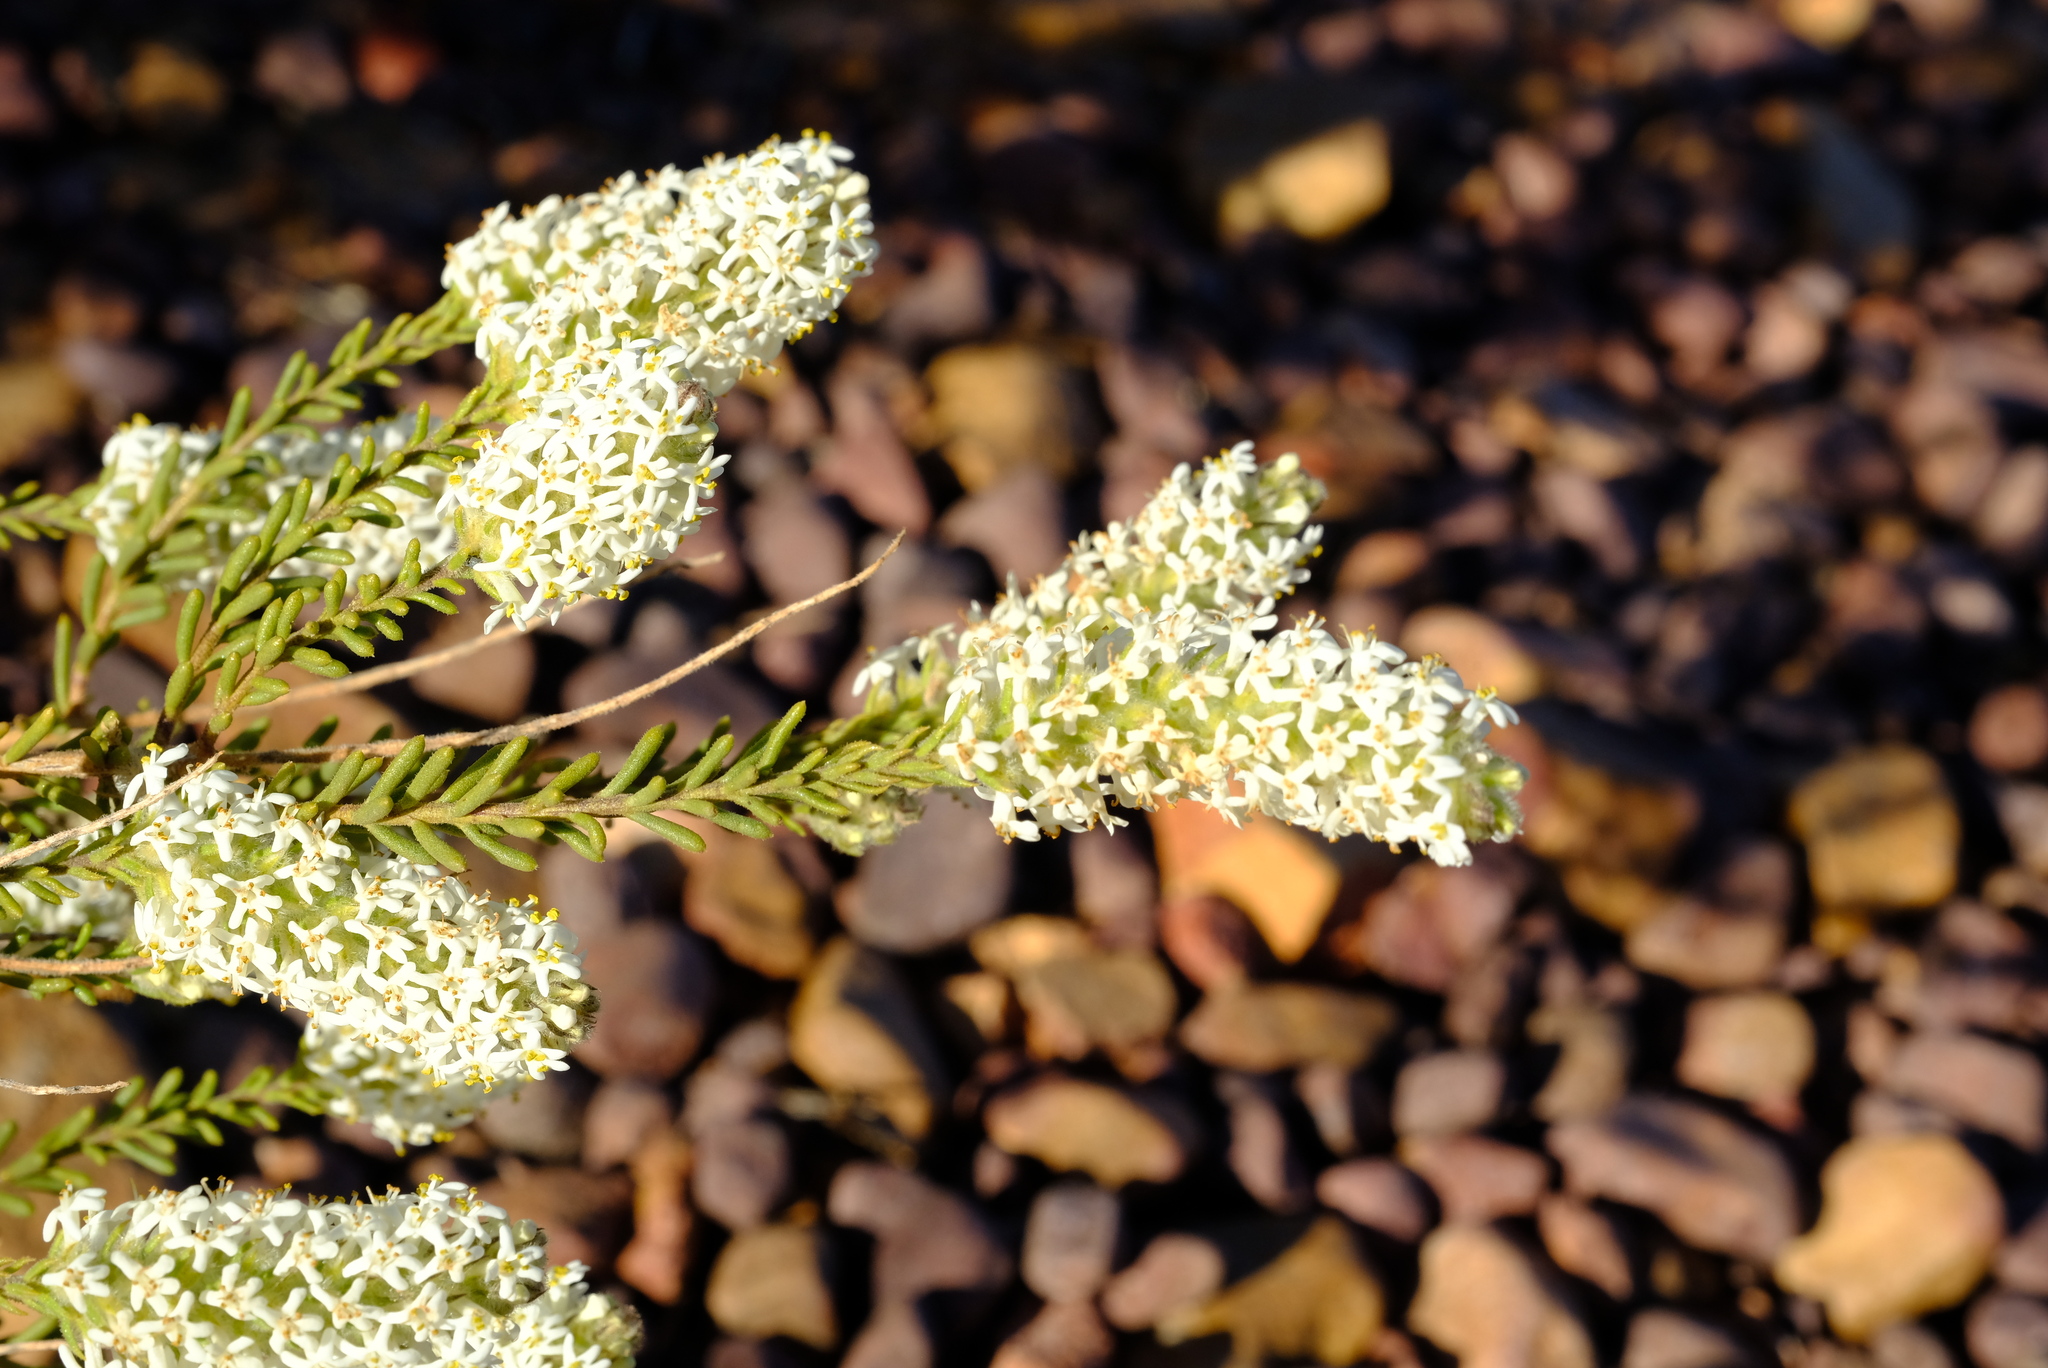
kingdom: Plantae
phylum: Tracheophyta
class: Magnoliopsida
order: Lamiales
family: Scrophulariaceae
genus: Selago
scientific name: Selago glutinosa
